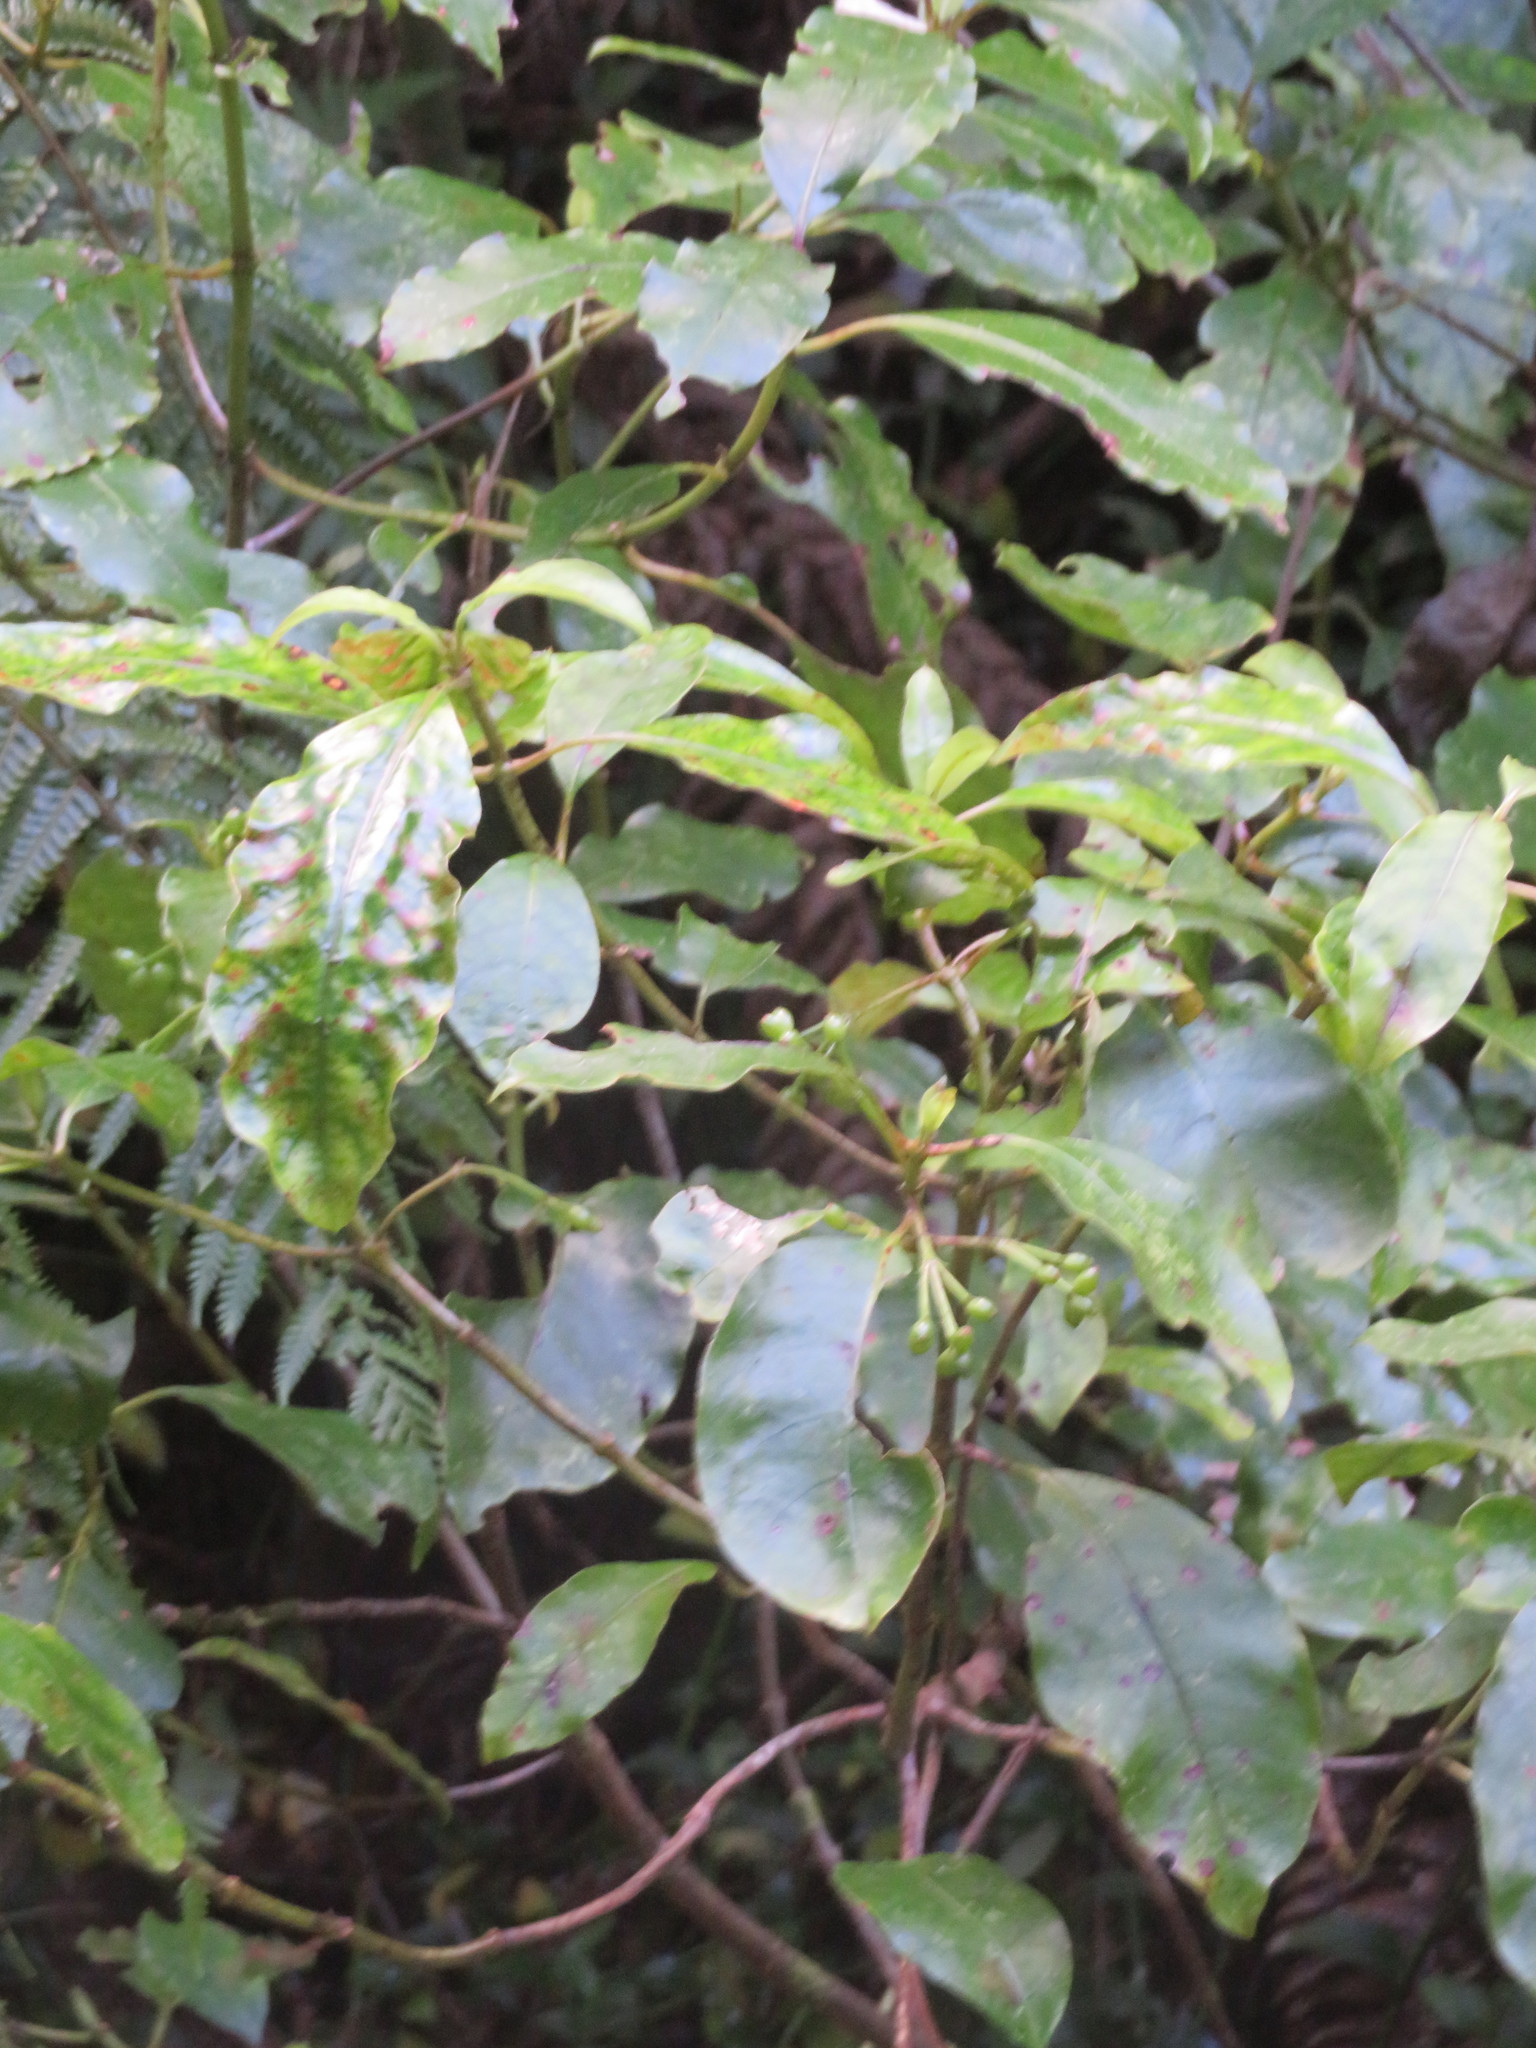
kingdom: Plantae
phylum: Tracheophyta
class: Magnoliopsida
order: Gentianales
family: Rubiaceae
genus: Coprosma
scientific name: Coprosma autumnalis
